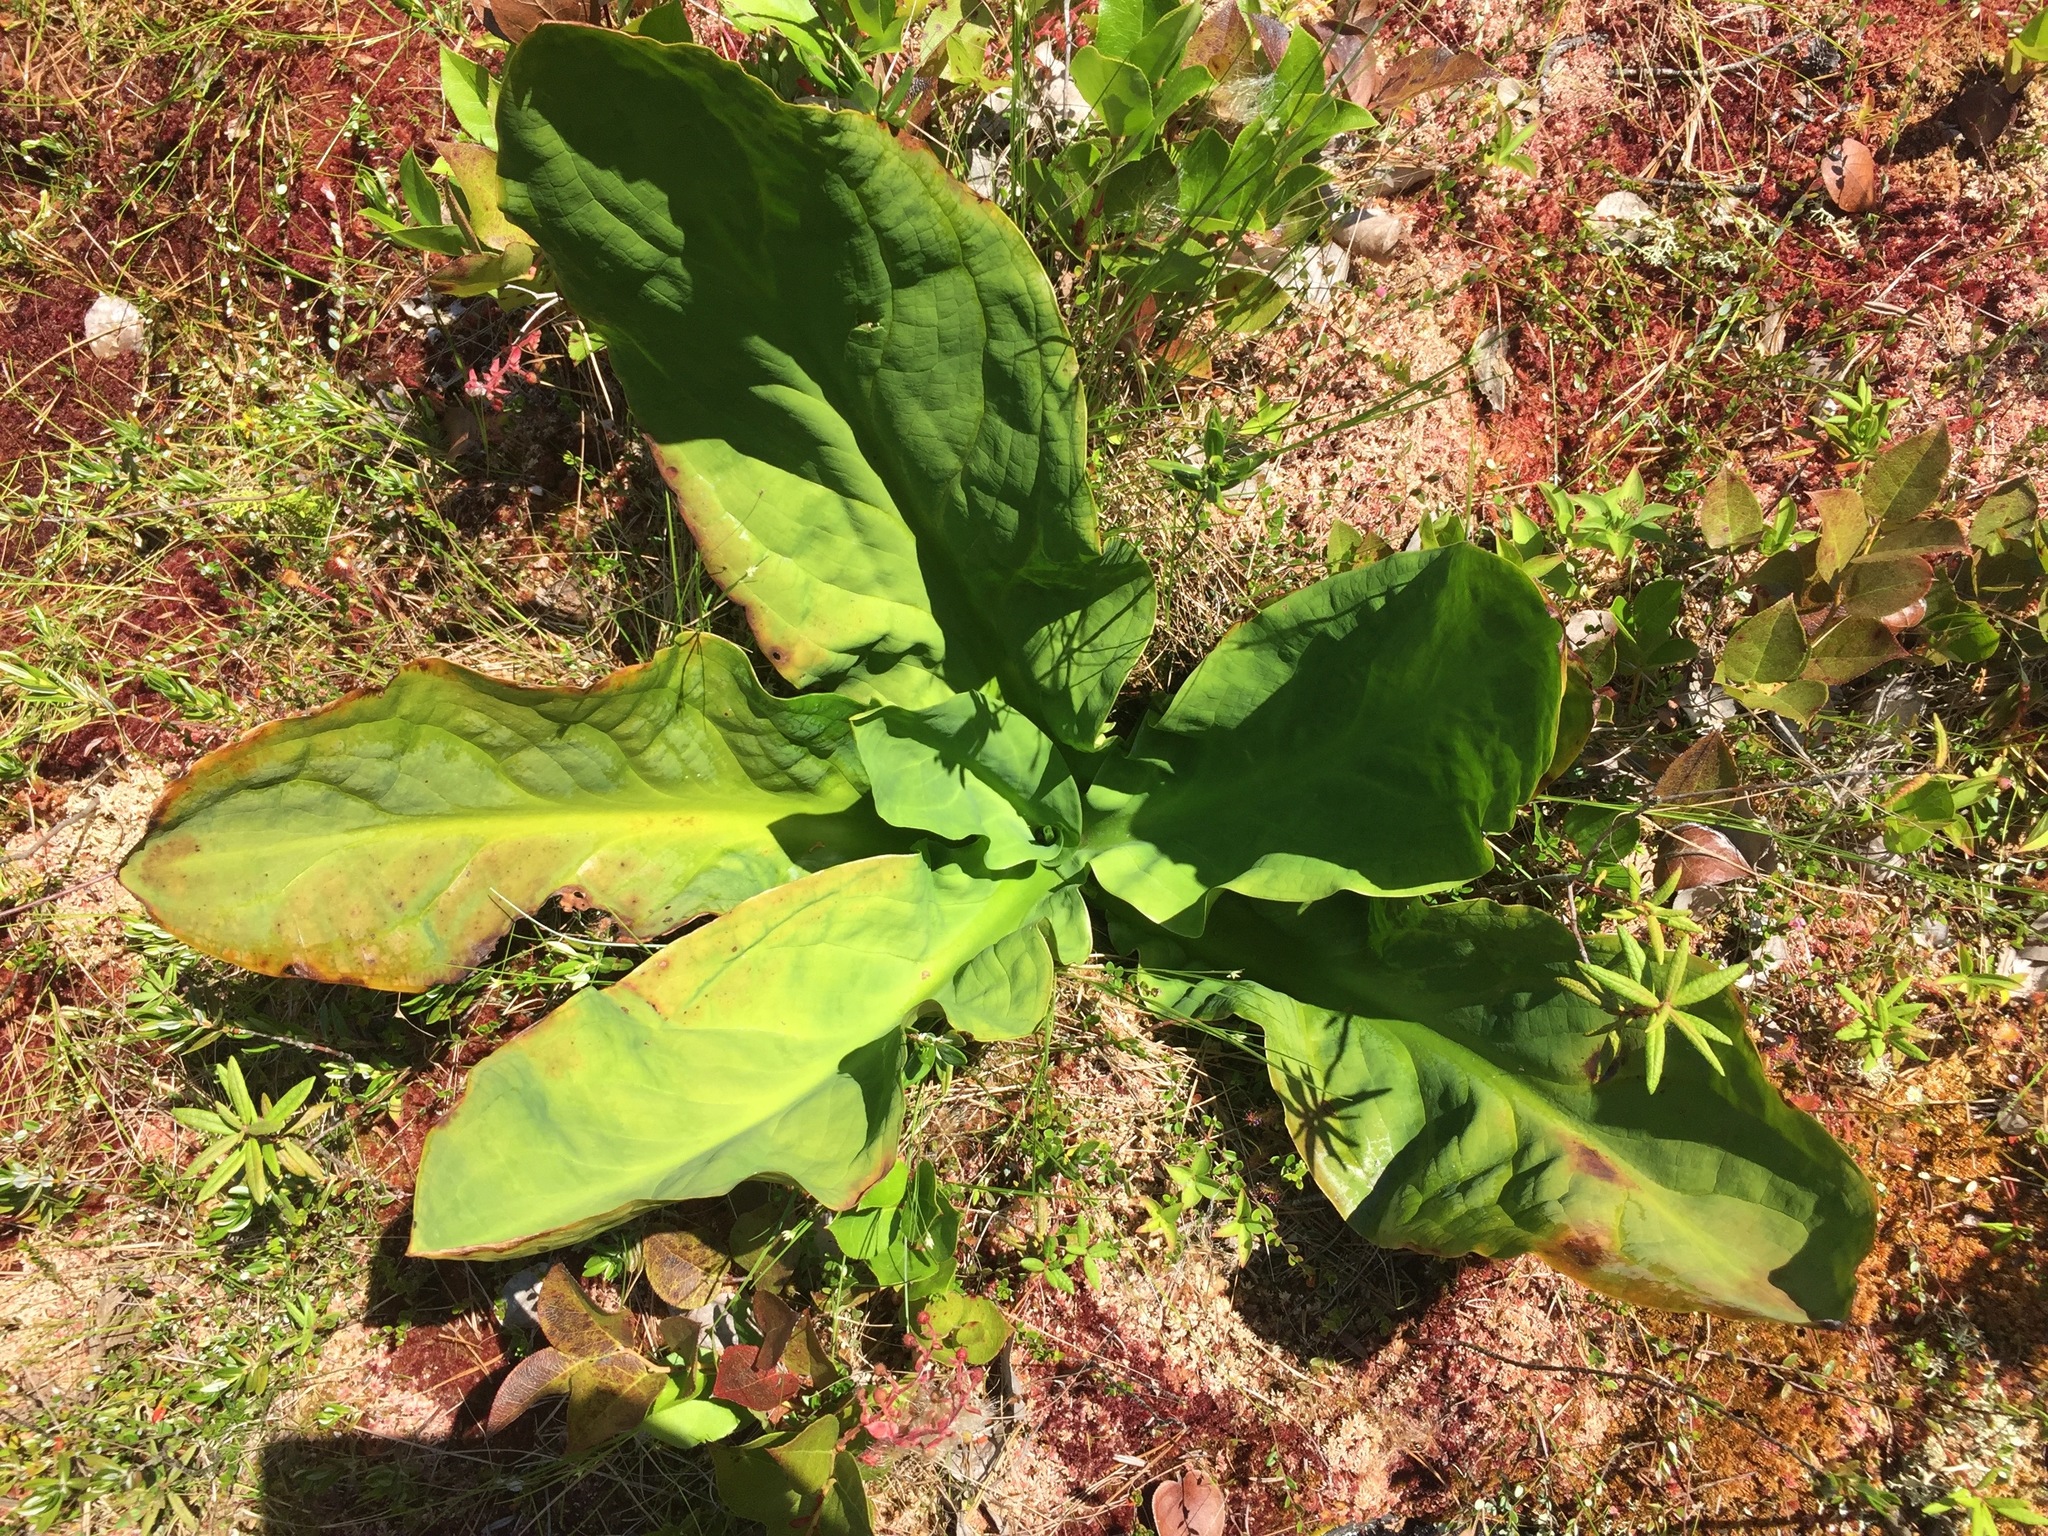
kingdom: Plantae
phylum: Tracheophyta
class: Liliopsida
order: Alismatales
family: Araceae
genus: Lysichiton
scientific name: Lysichiton americanus
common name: American skunk cabbage
